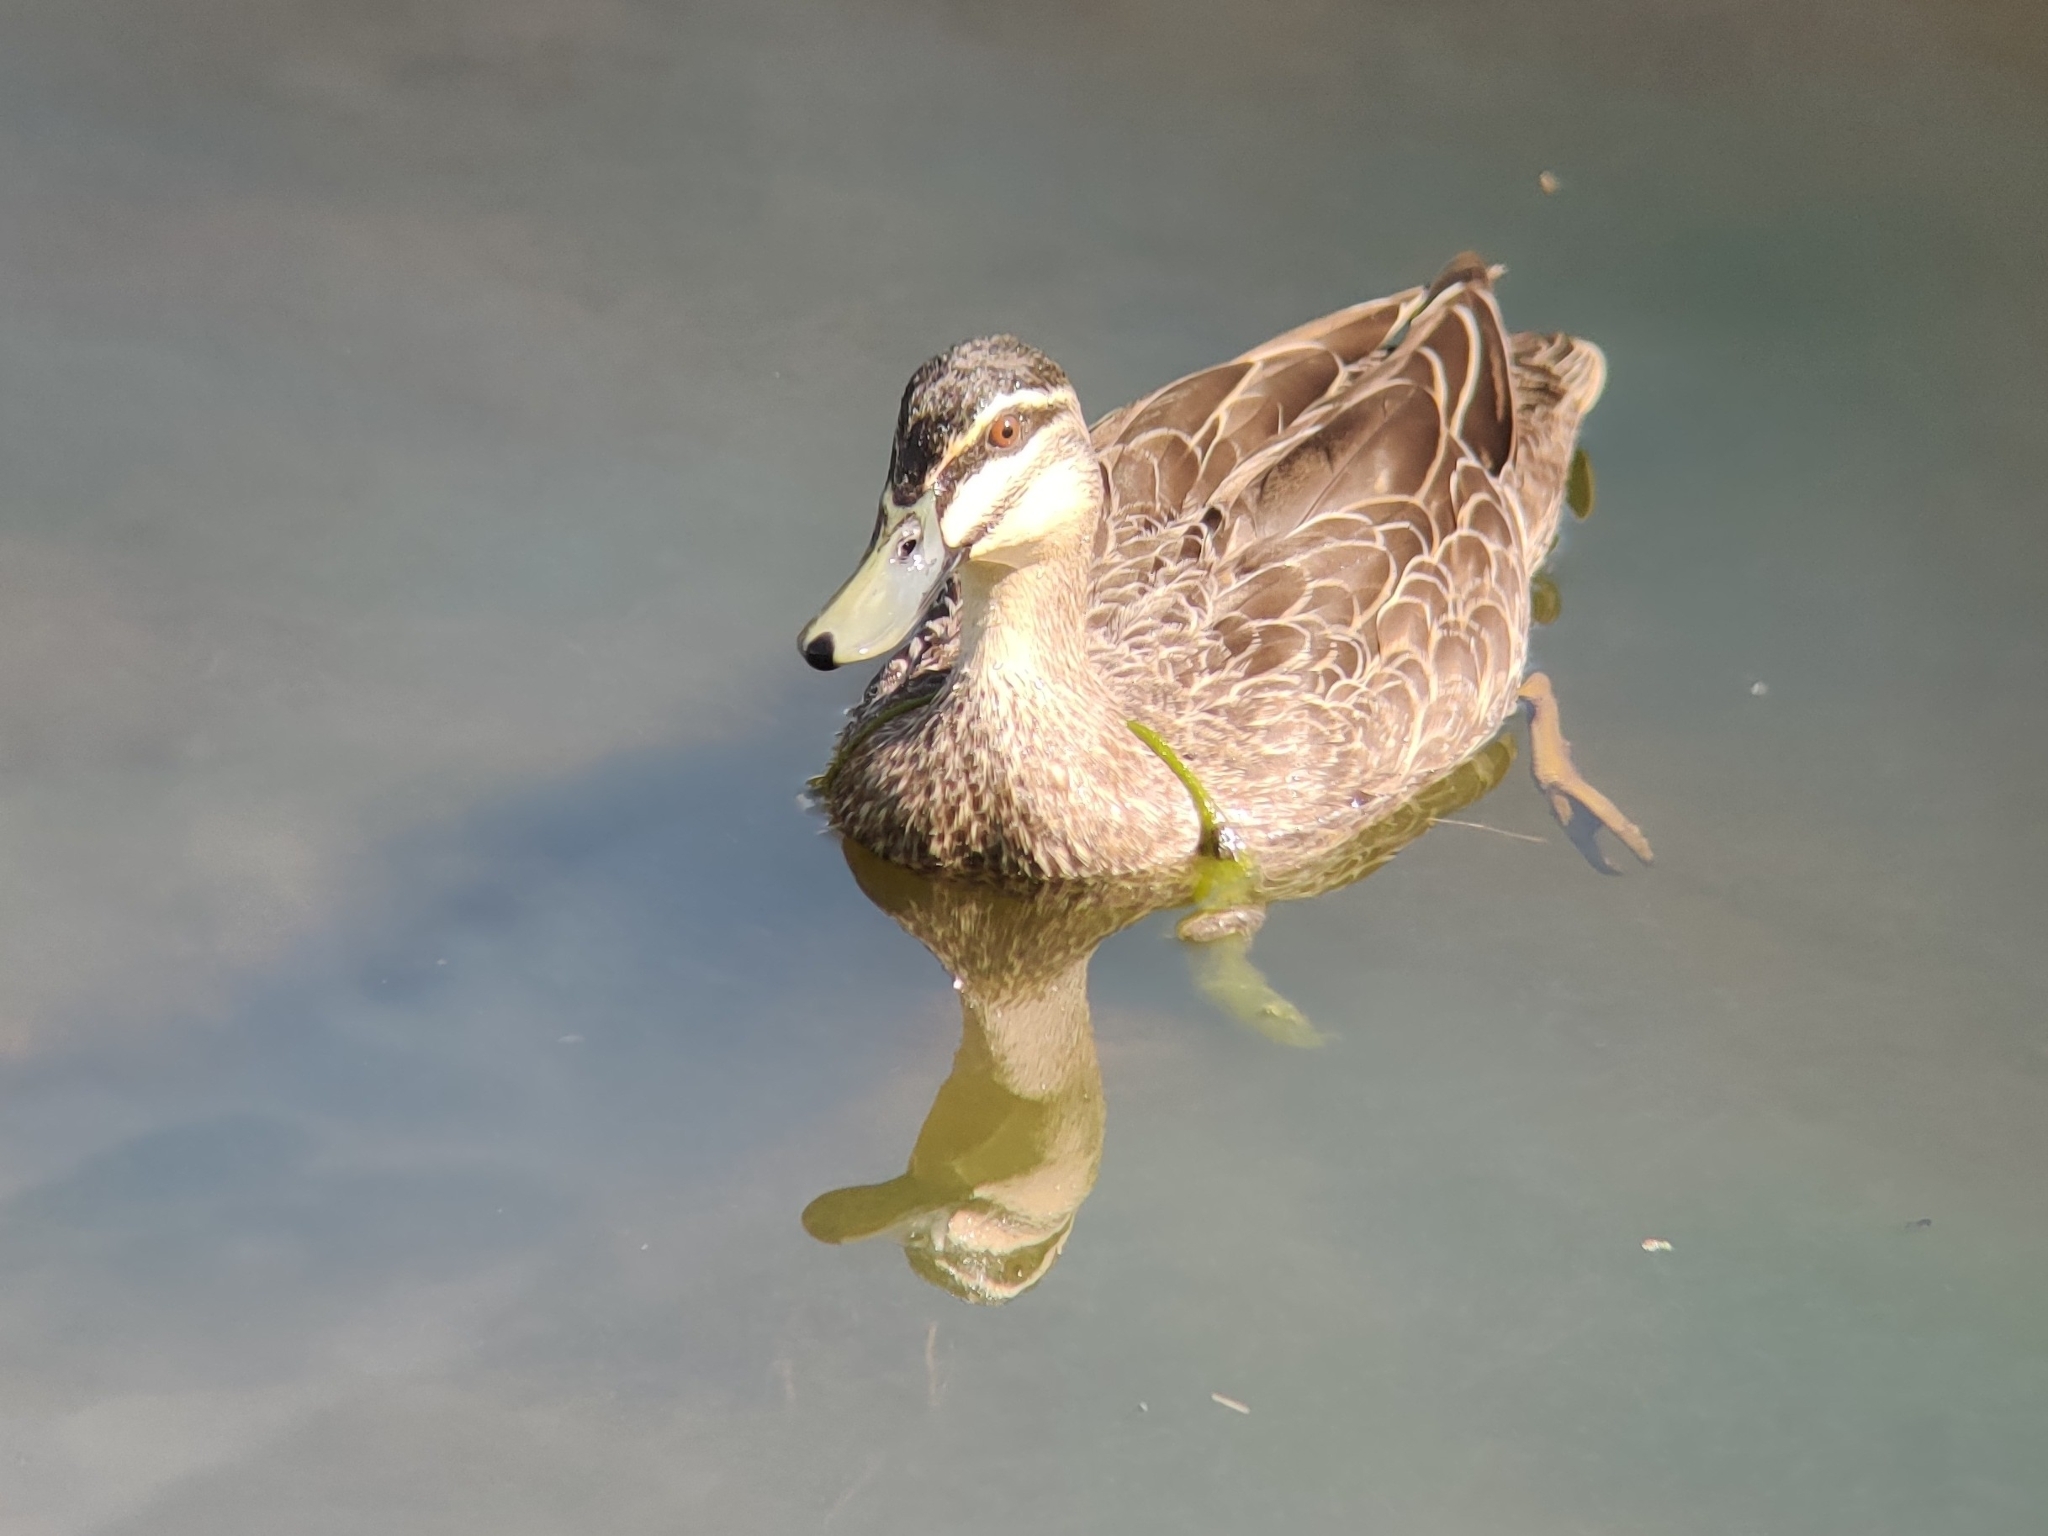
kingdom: Animalia
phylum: Chordata
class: Aves
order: Anseriformes
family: Anatidae
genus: Anas
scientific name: Anas
